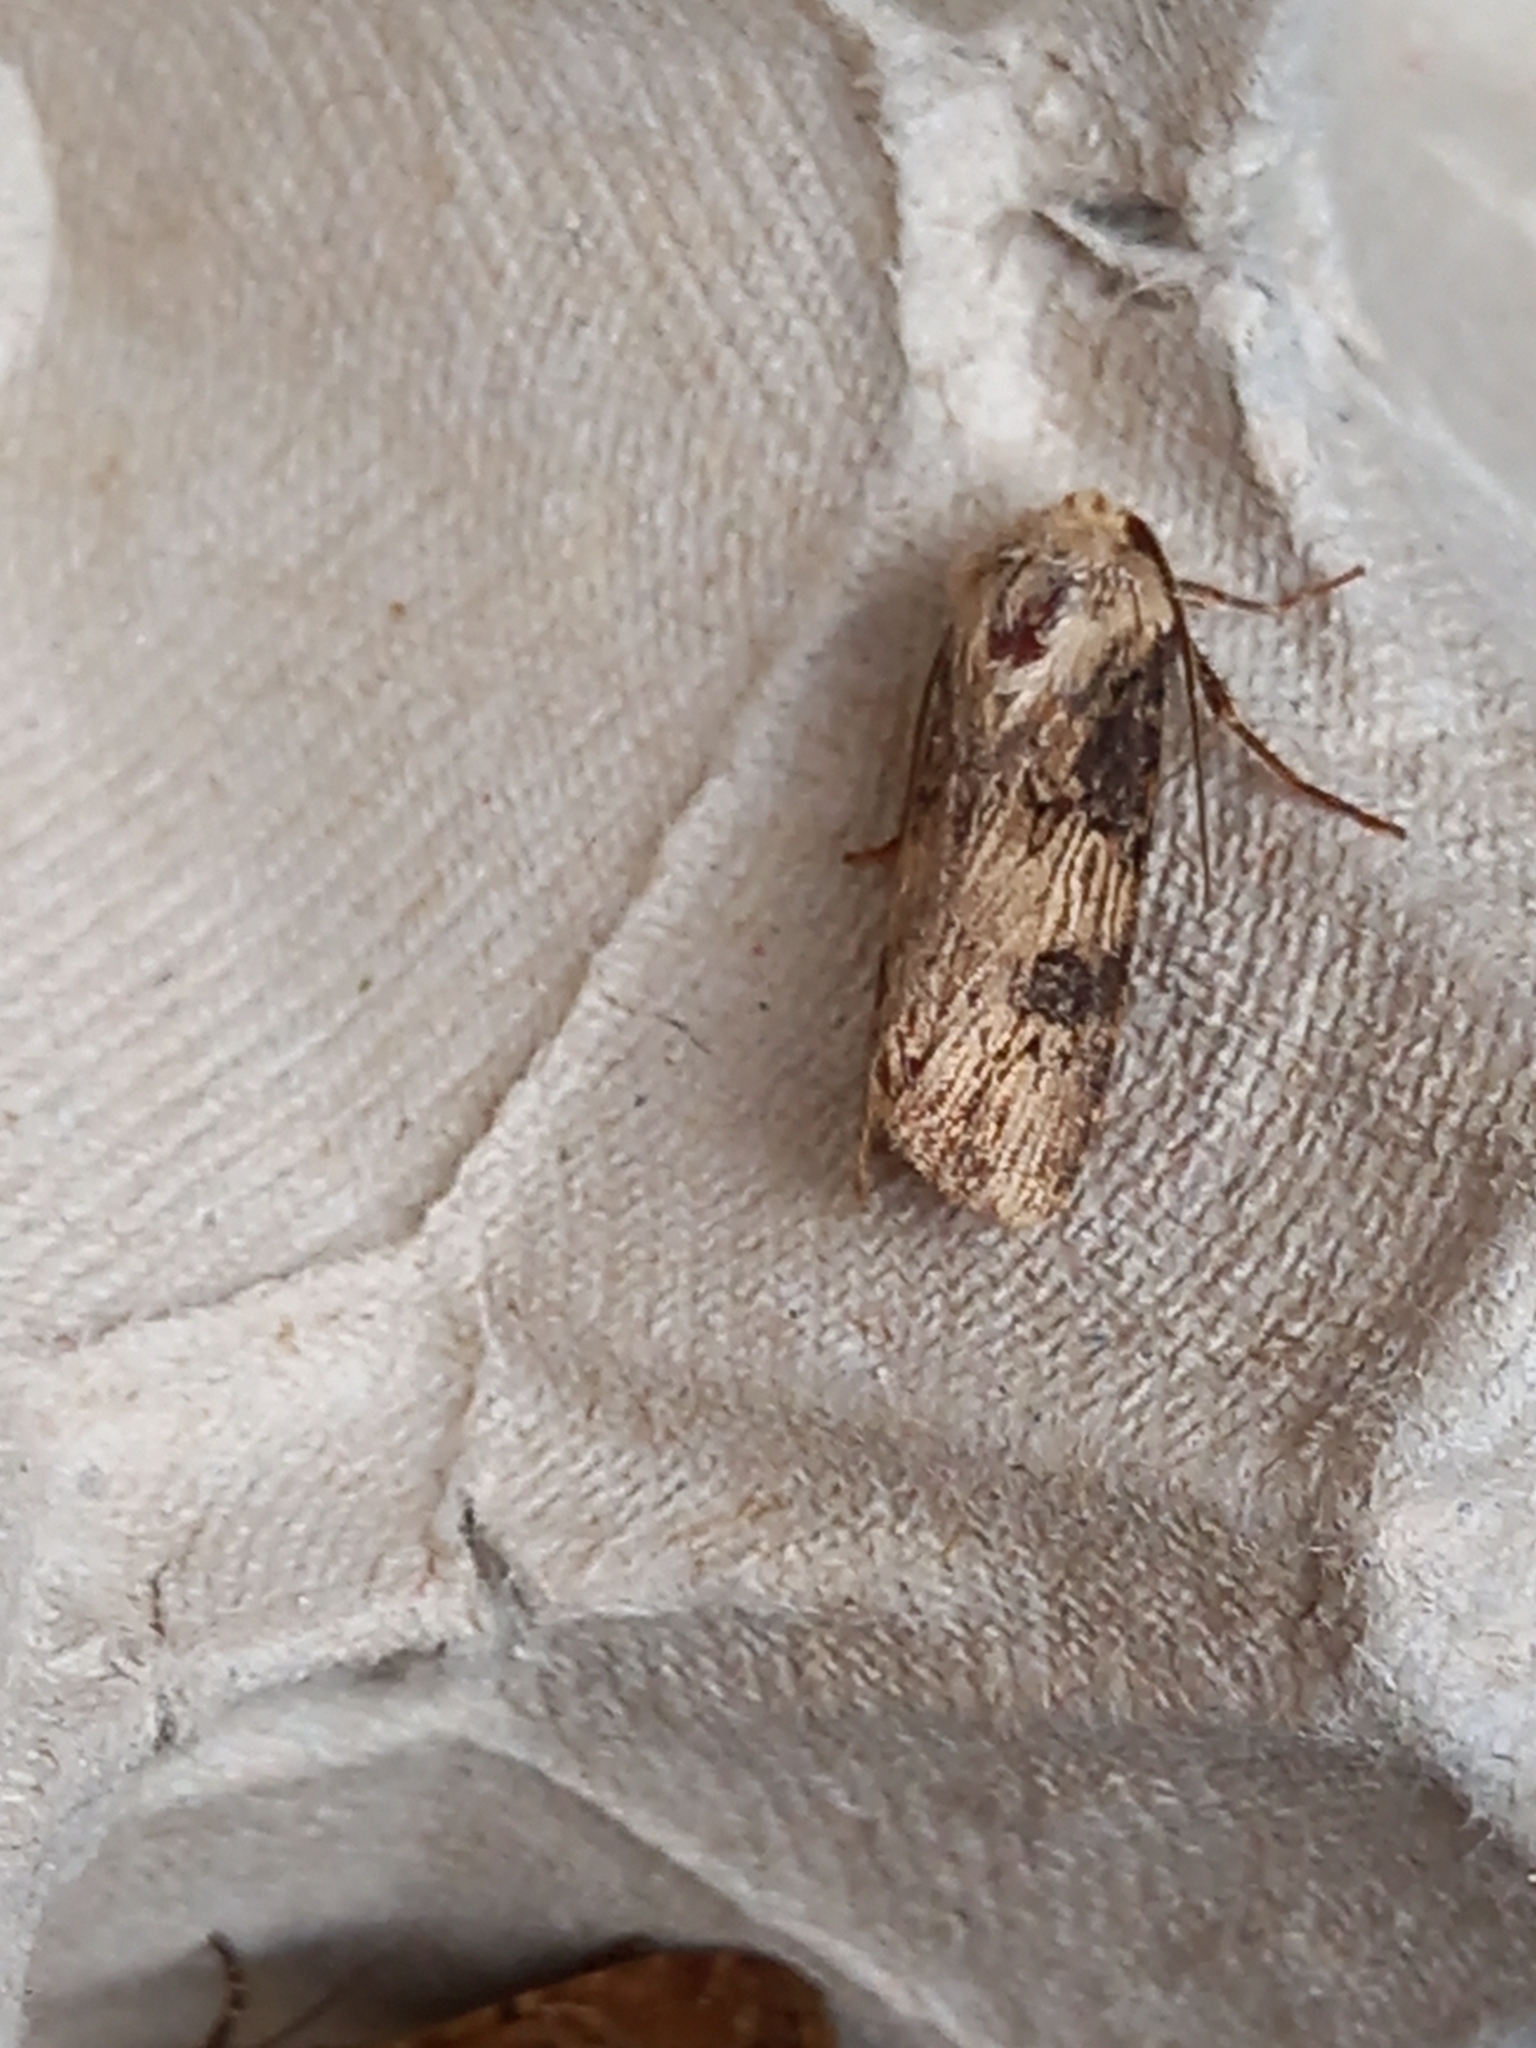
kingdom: Animalia
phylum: Arthropoda
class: Insecta
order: Lepidoptera
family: Noctuidae
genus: Agrotis
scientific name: Agrotis puta
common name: Shuttle-shaped dart
